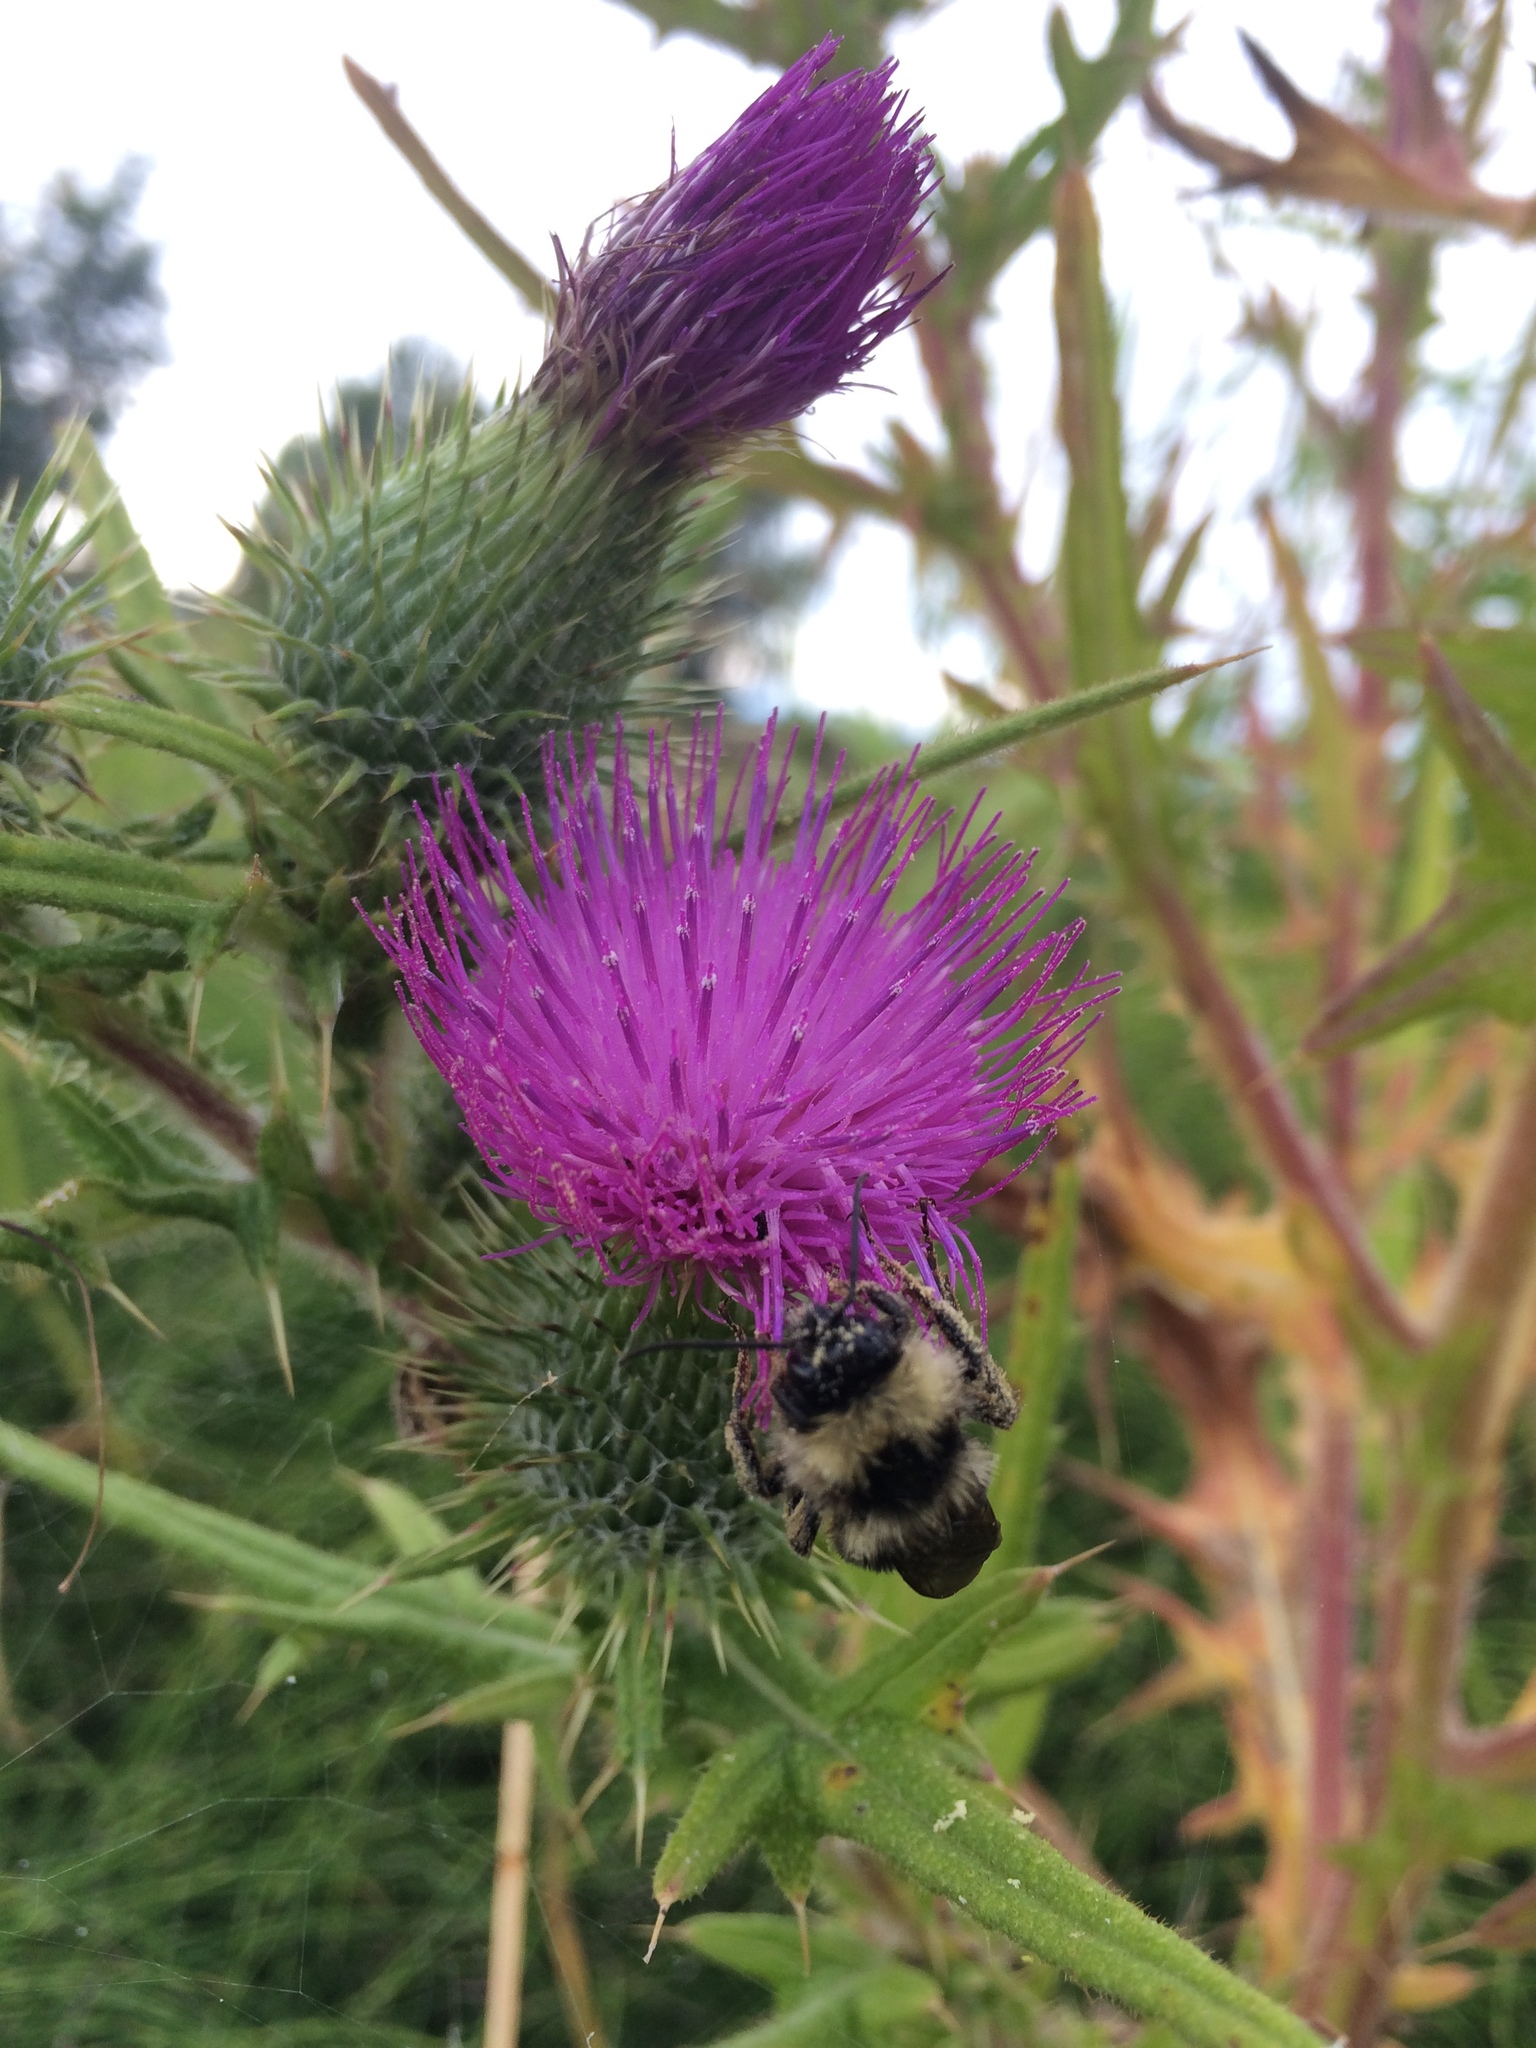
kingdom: Plantae
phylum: Tracheophyta
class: Magnoliopsida
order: Asterales
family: Asteraceae
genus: Cirsium
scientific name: Cirsium vulgare
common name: Bull thistle
